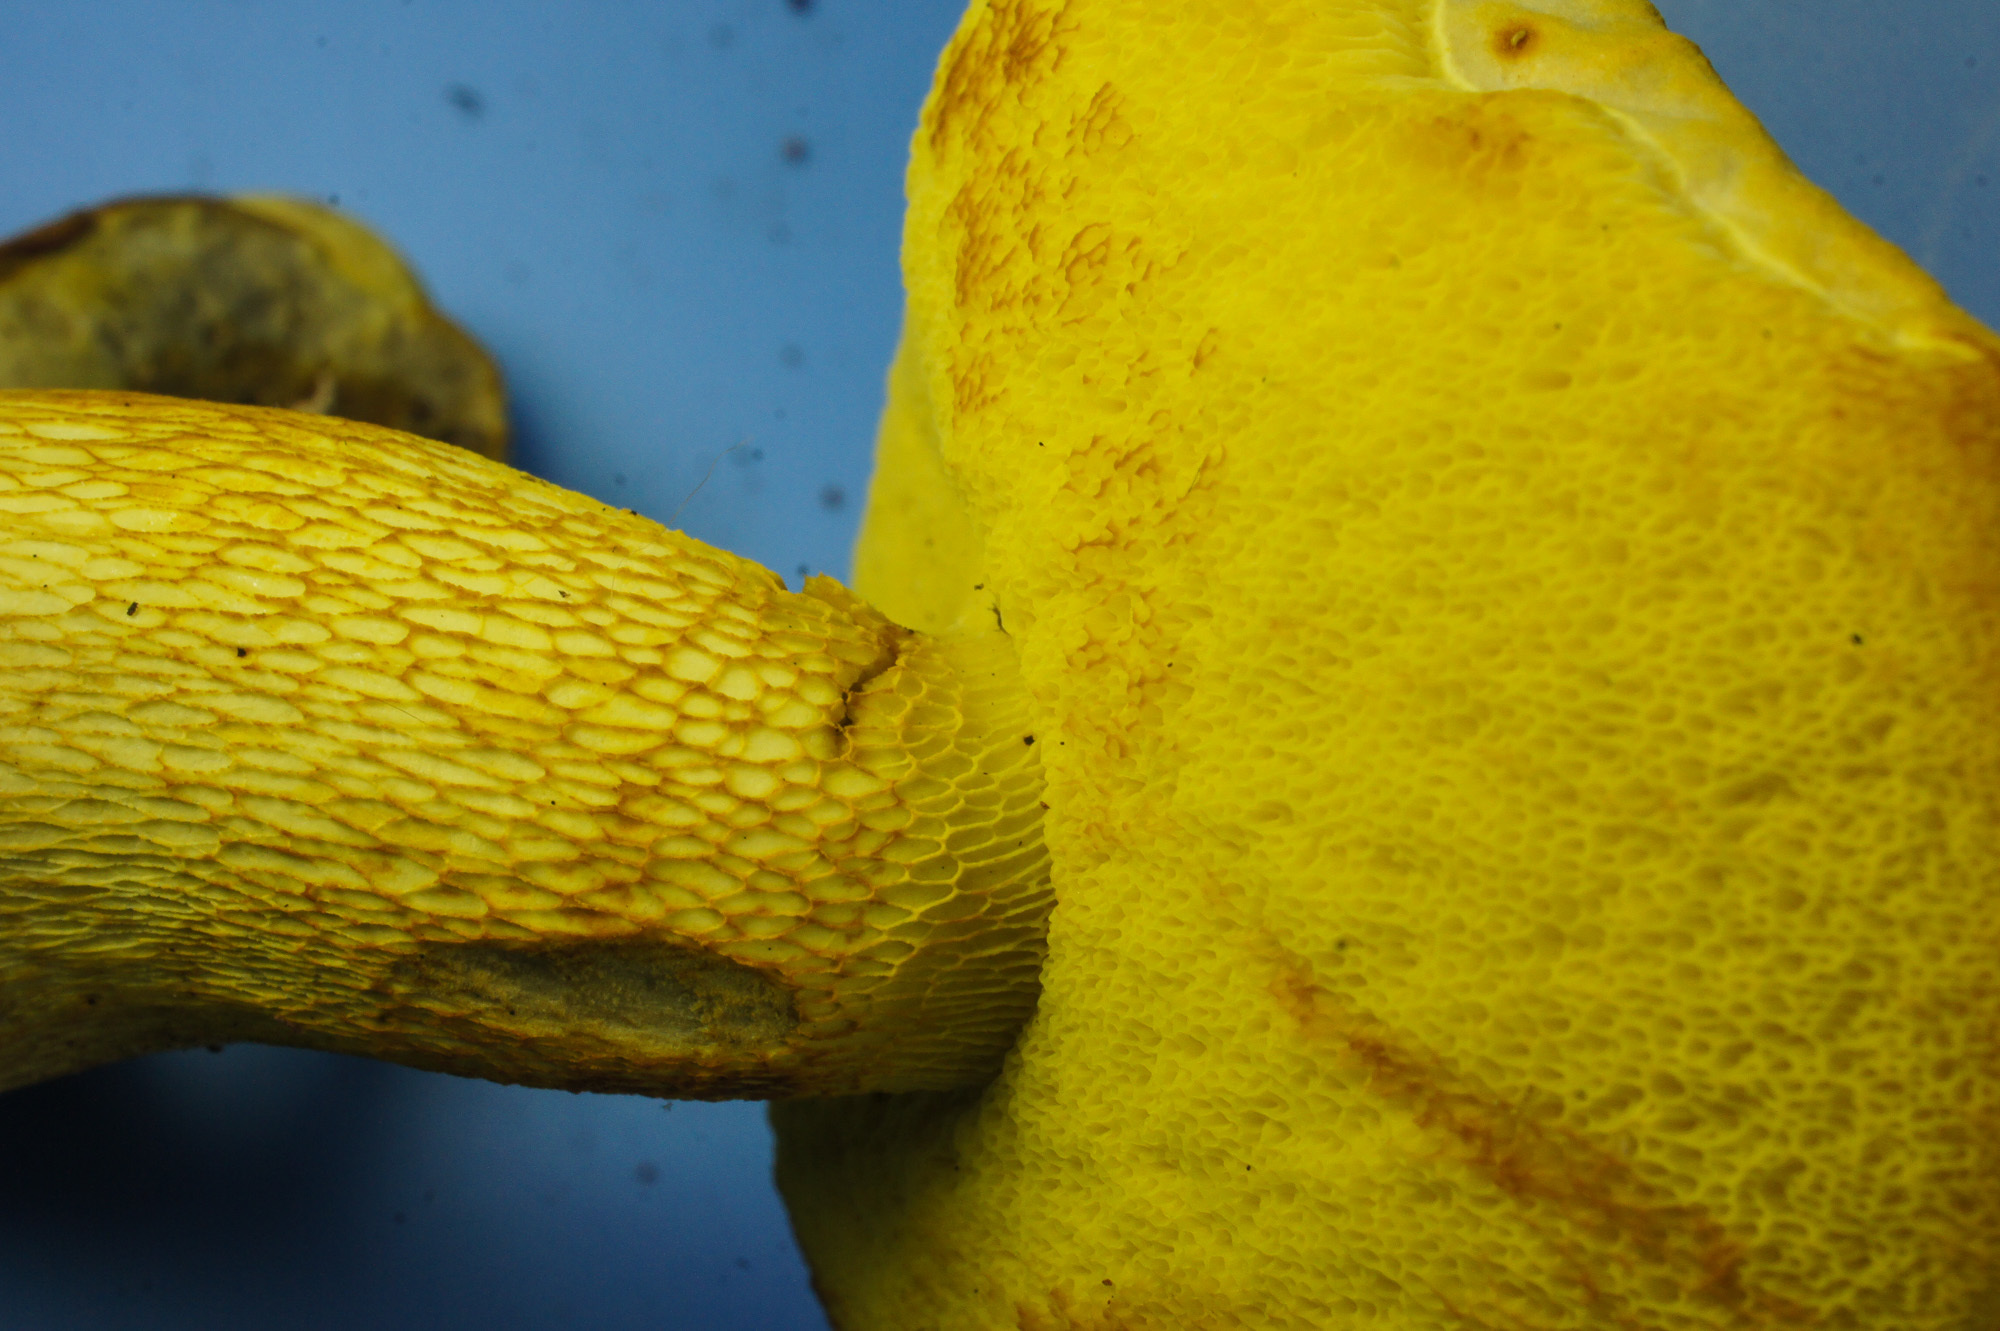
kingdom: Fungi
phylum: Basidiomycota
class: Agaricomycetes
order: Boletales
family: Boletaceae
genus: Retiboletus
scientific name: Retiboletus ornatipes
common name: Ornate-stalked bolete
